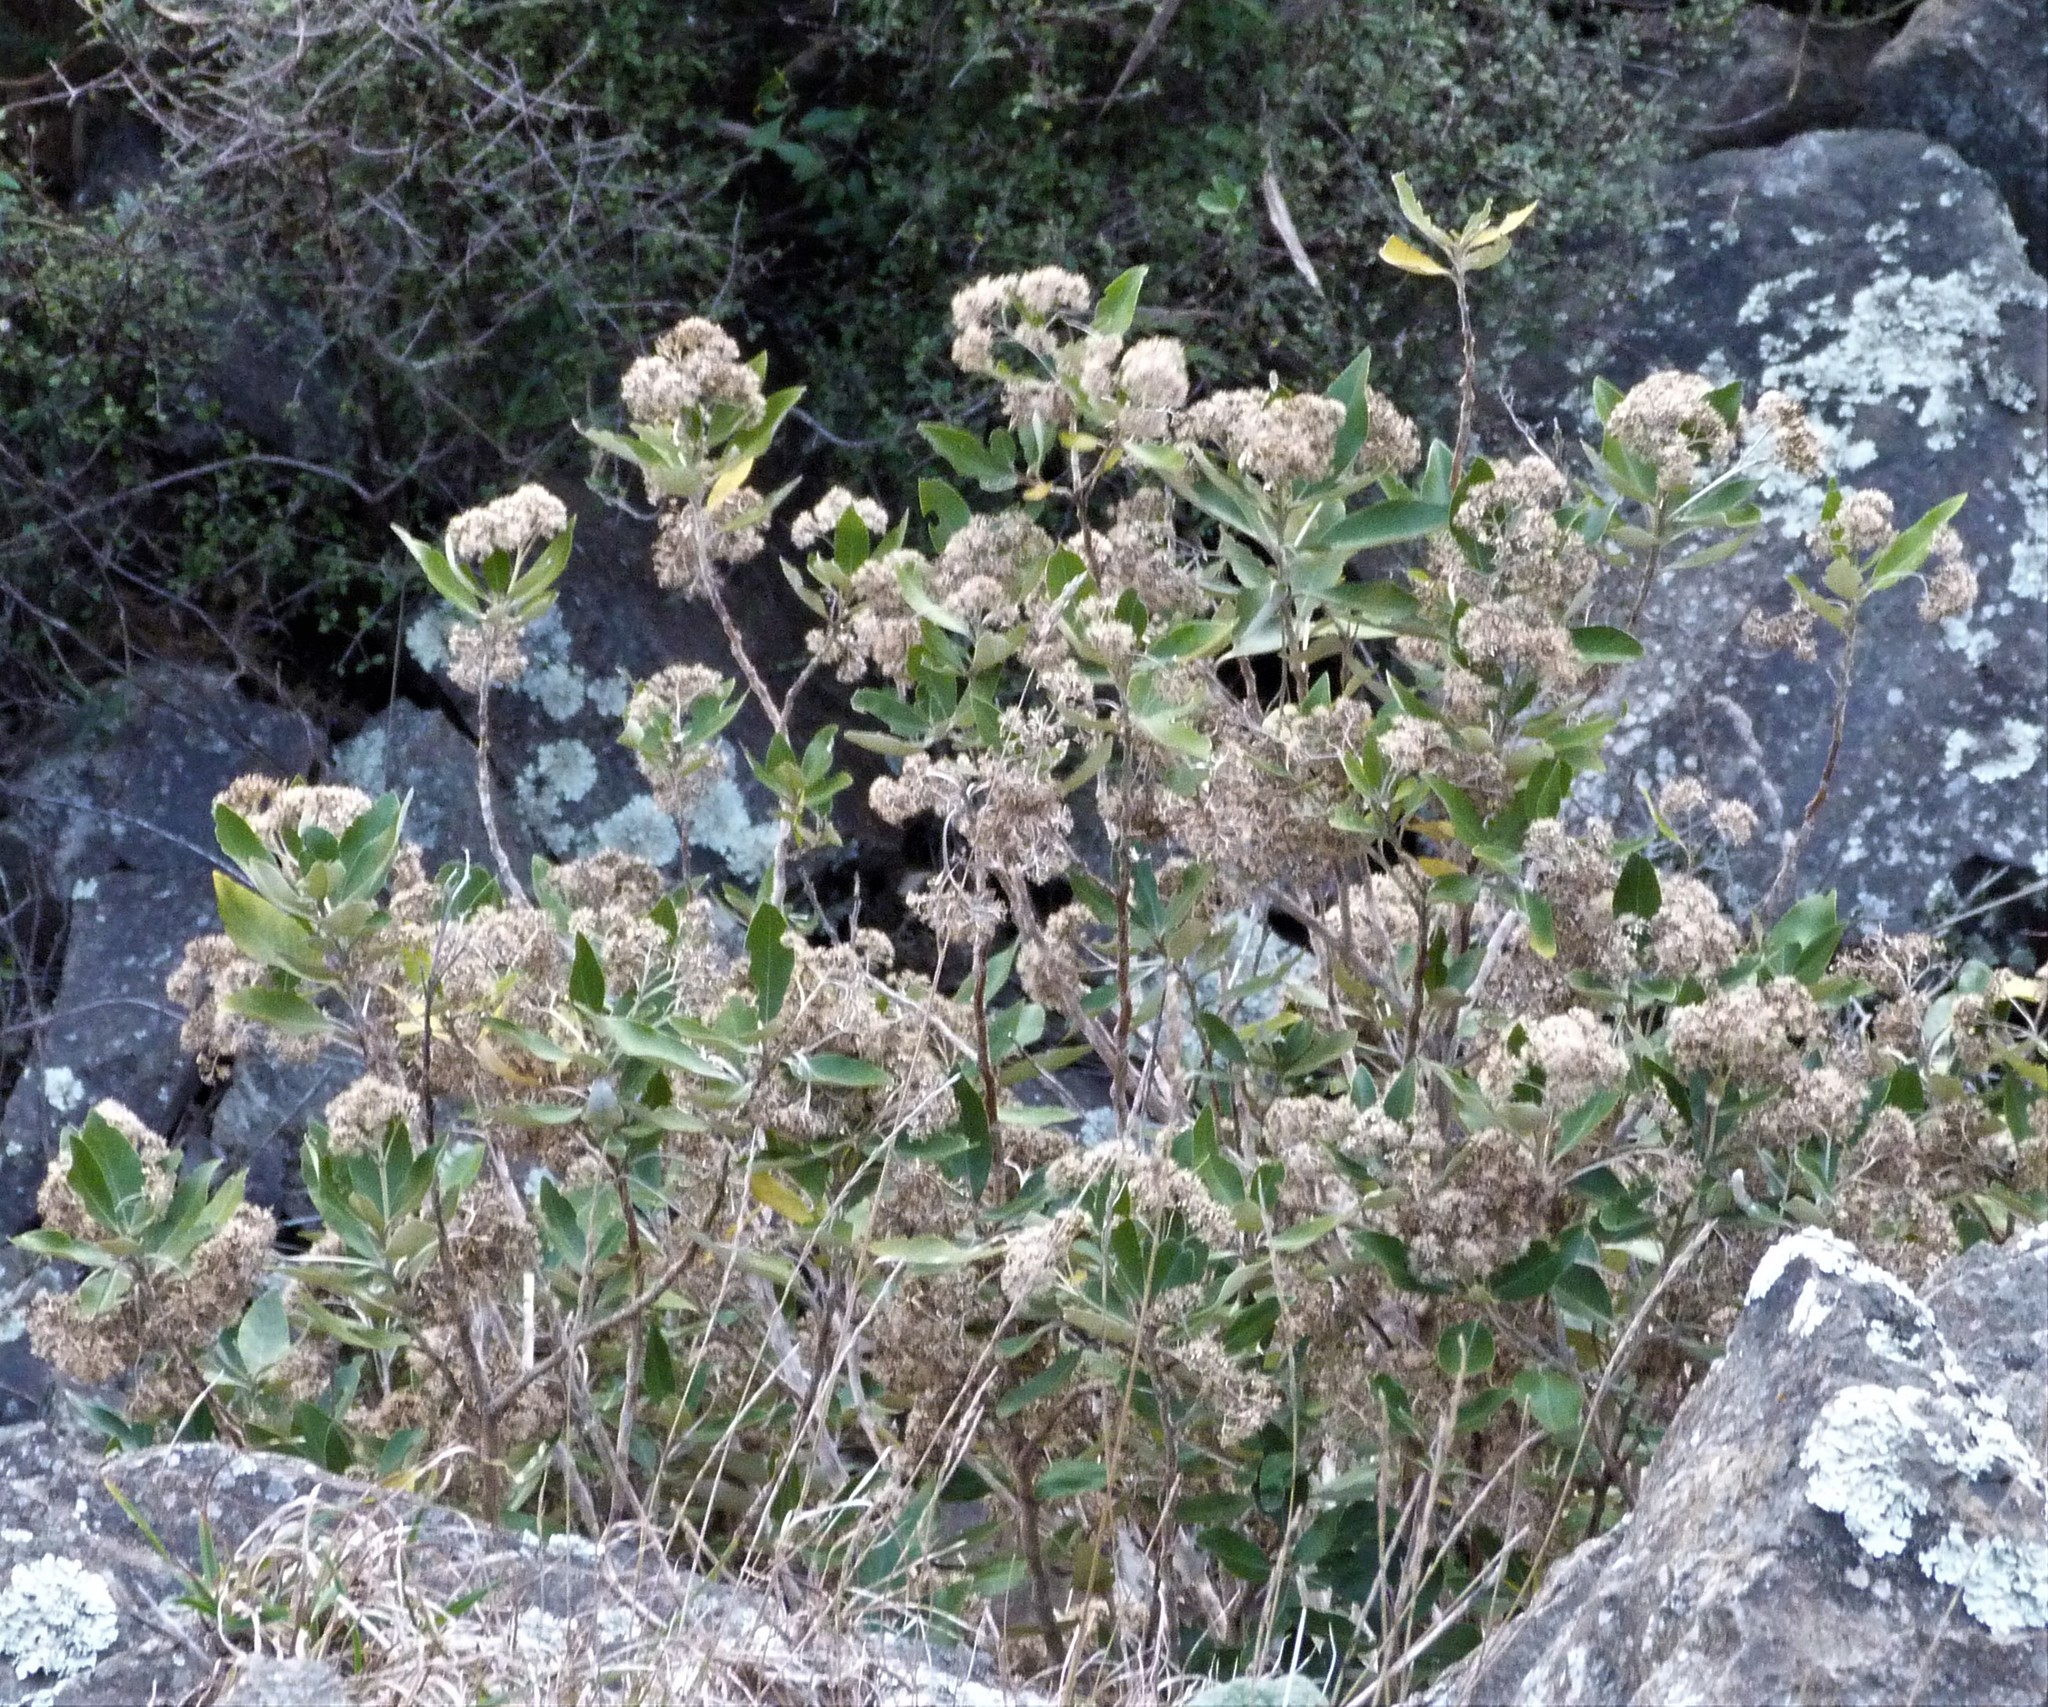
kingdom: Plantae
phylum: Tracheophyta
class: Magnoliopsida
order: Asterales
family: Asteraceae
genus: Olearia
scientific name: Olearia avicenniifolia
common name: Mangrove-leaf daisybush
